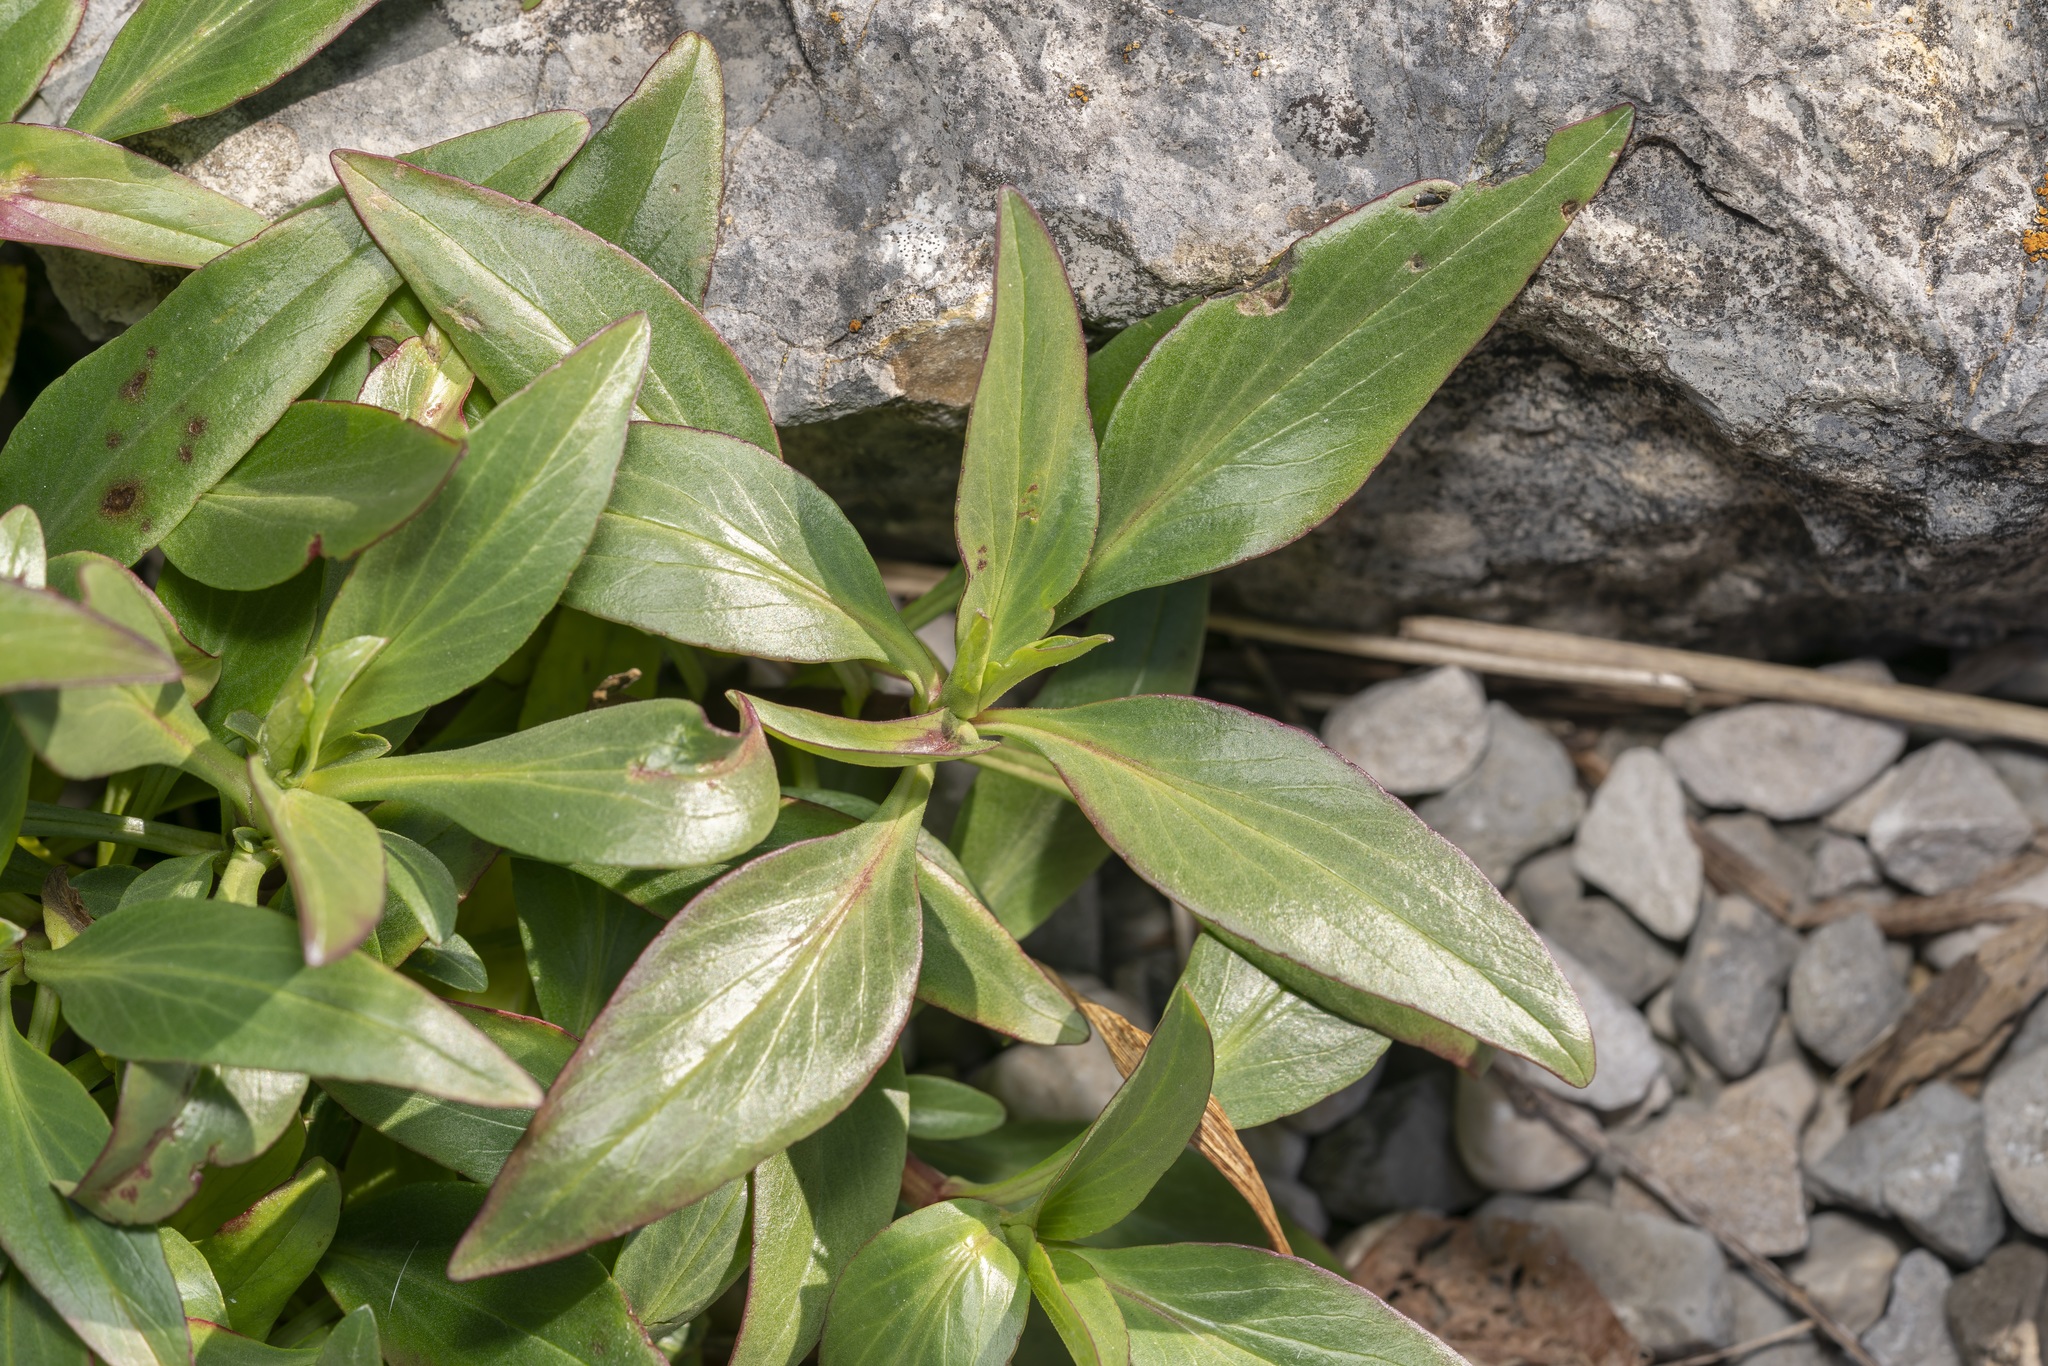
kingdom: Plantae
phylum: Tracheophyta
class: Magnoliopsida
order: Dipsacales
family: Caprifoliaceae
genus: Centranthus
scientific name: Centranthus ruber
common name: Red valerian
